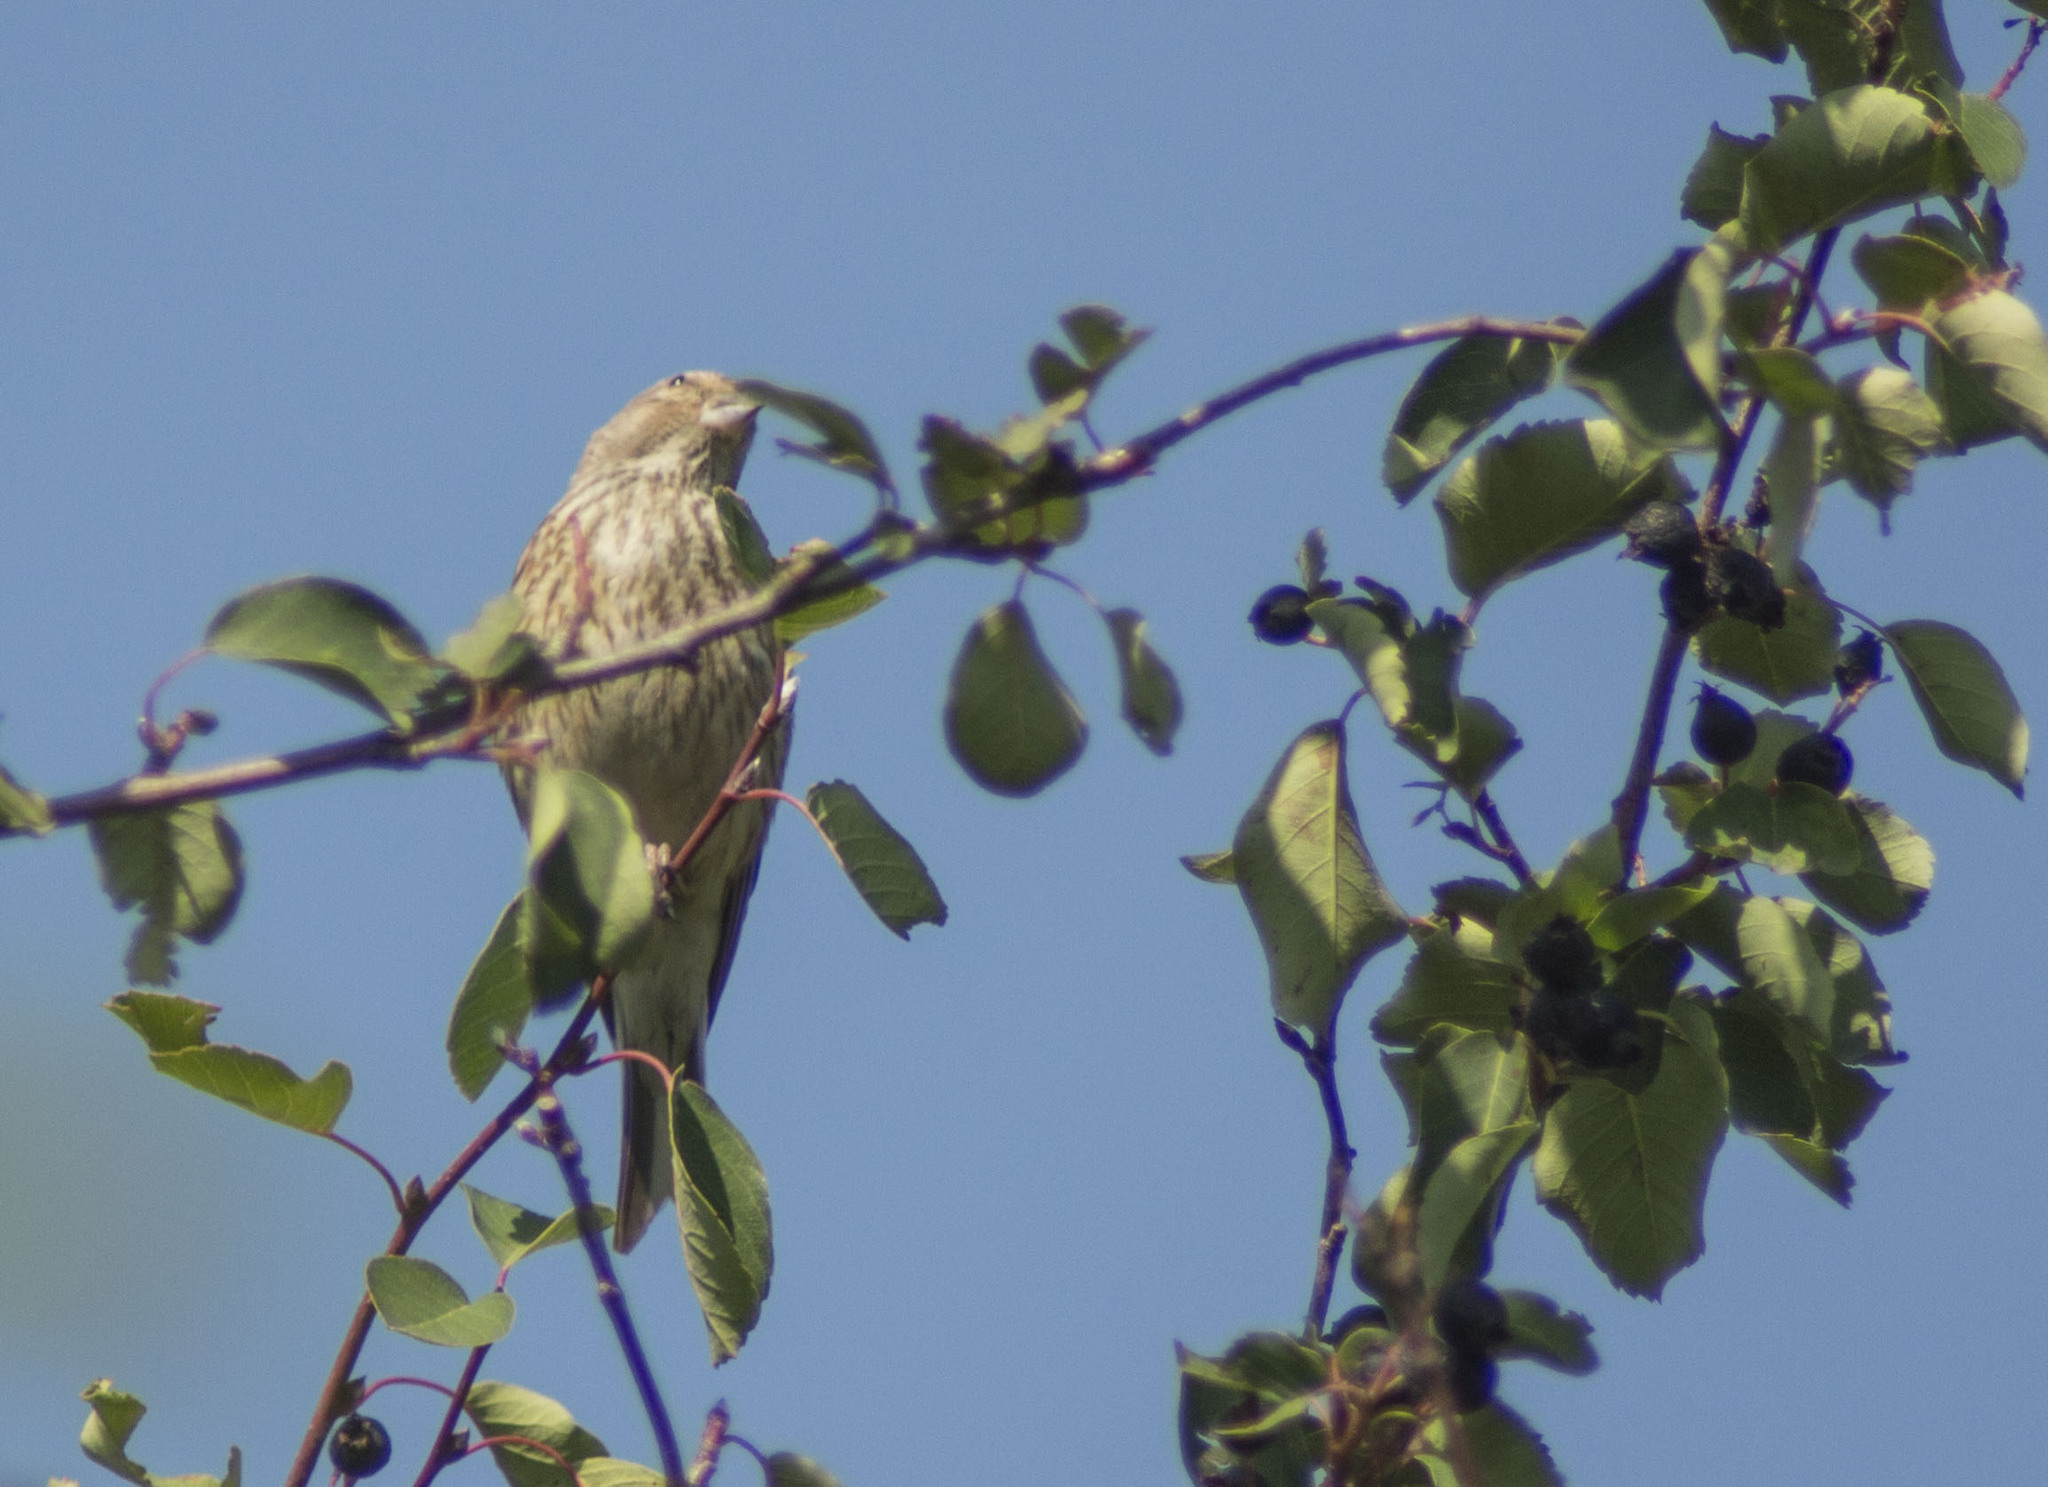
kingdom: Animalia
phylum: Chordata
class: Aves
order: Passeriformes
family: Fringillidae
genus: Linaria
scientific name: Linaria cannabina
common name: Common linnet
